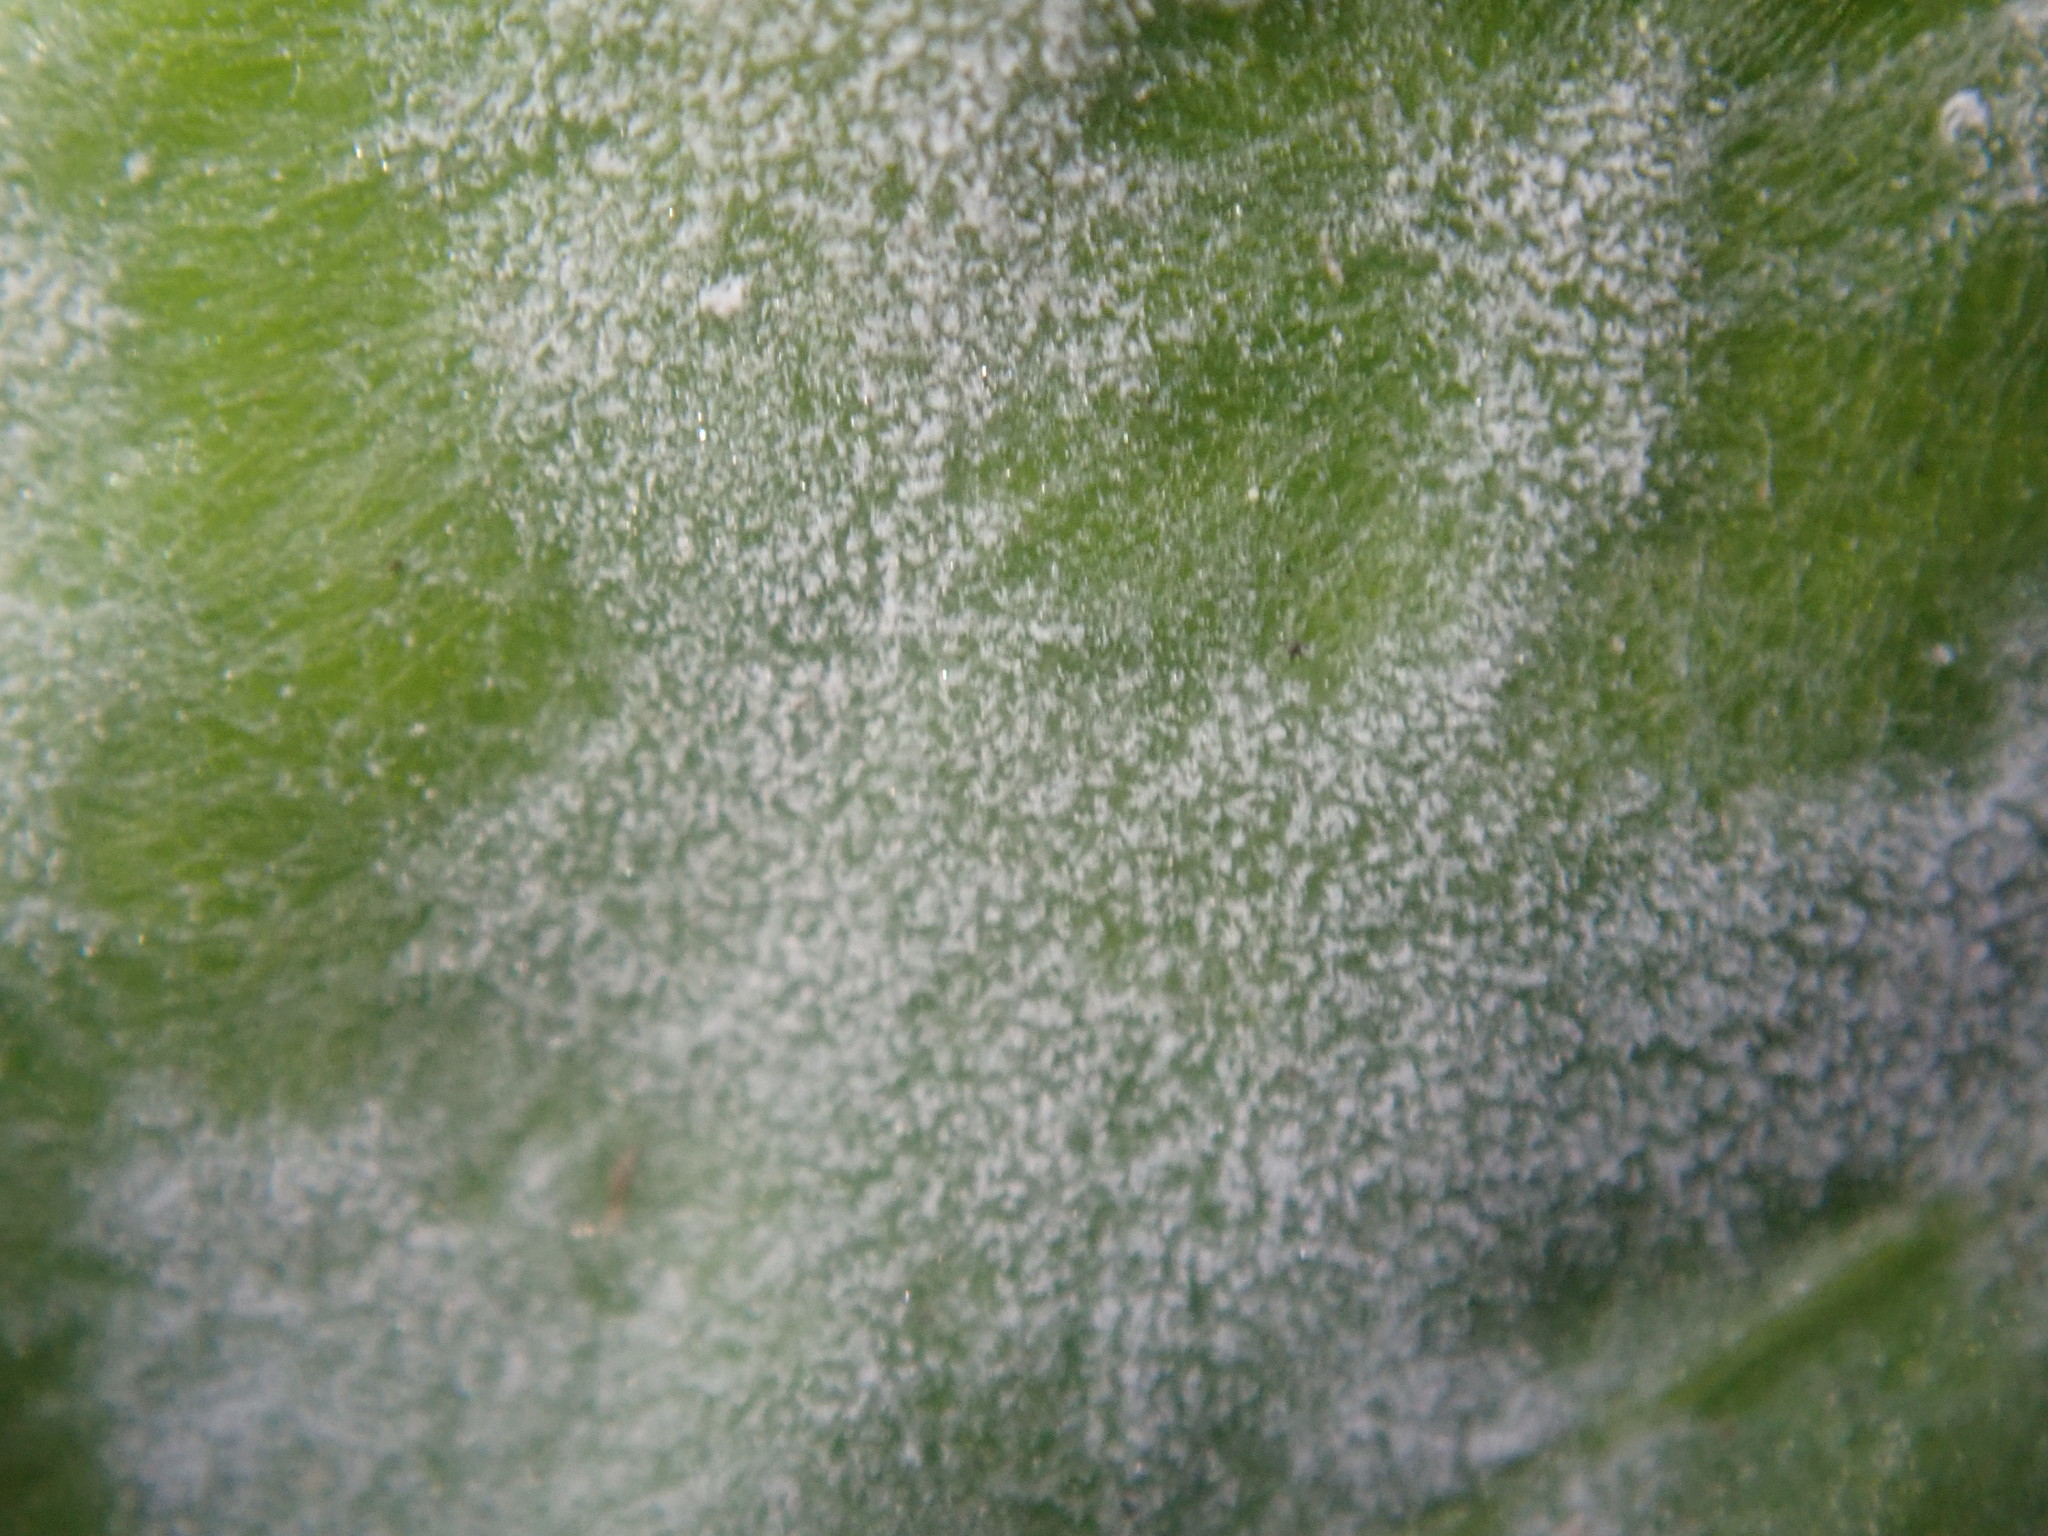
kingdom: Fungi
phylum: Ascomycota
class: Leotiomycetes
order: Helotiales
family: Erysiphaceae
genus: Erysiphe
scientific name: Erysiphe euonymicola
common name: Spindletree mildew
